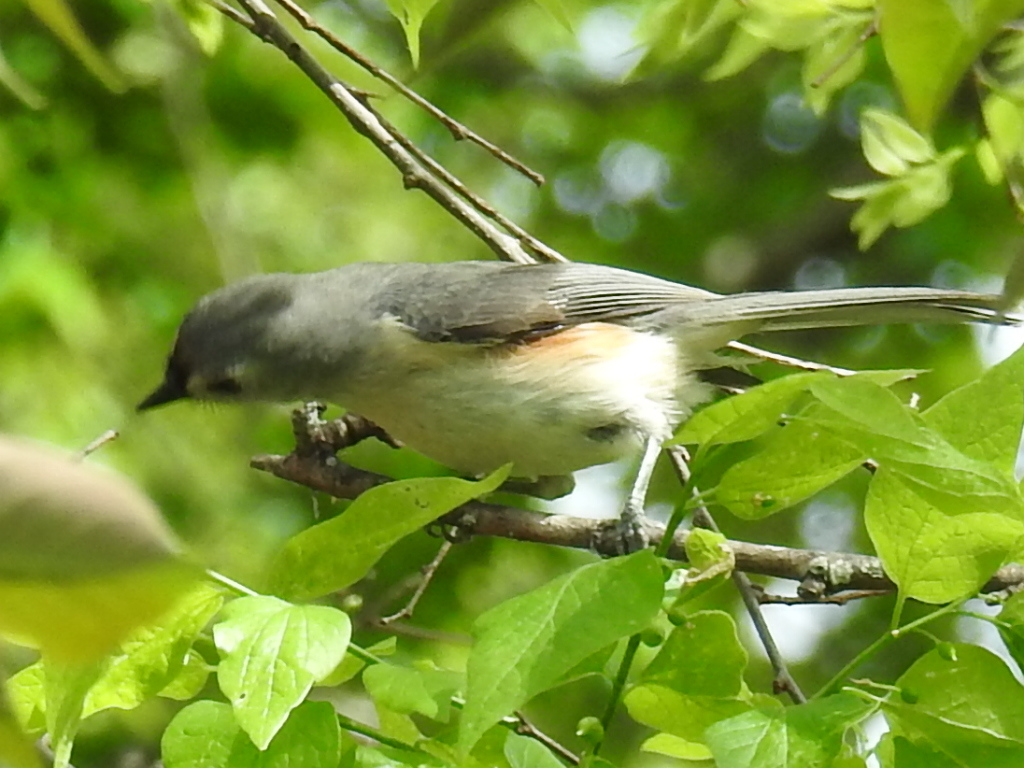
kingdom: Animalia
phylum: Chordata
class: Aves
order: Passeriformes
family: Paridae
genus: Baeolophus
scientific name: Baeolophus bicolor
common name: Tufted titmouse
